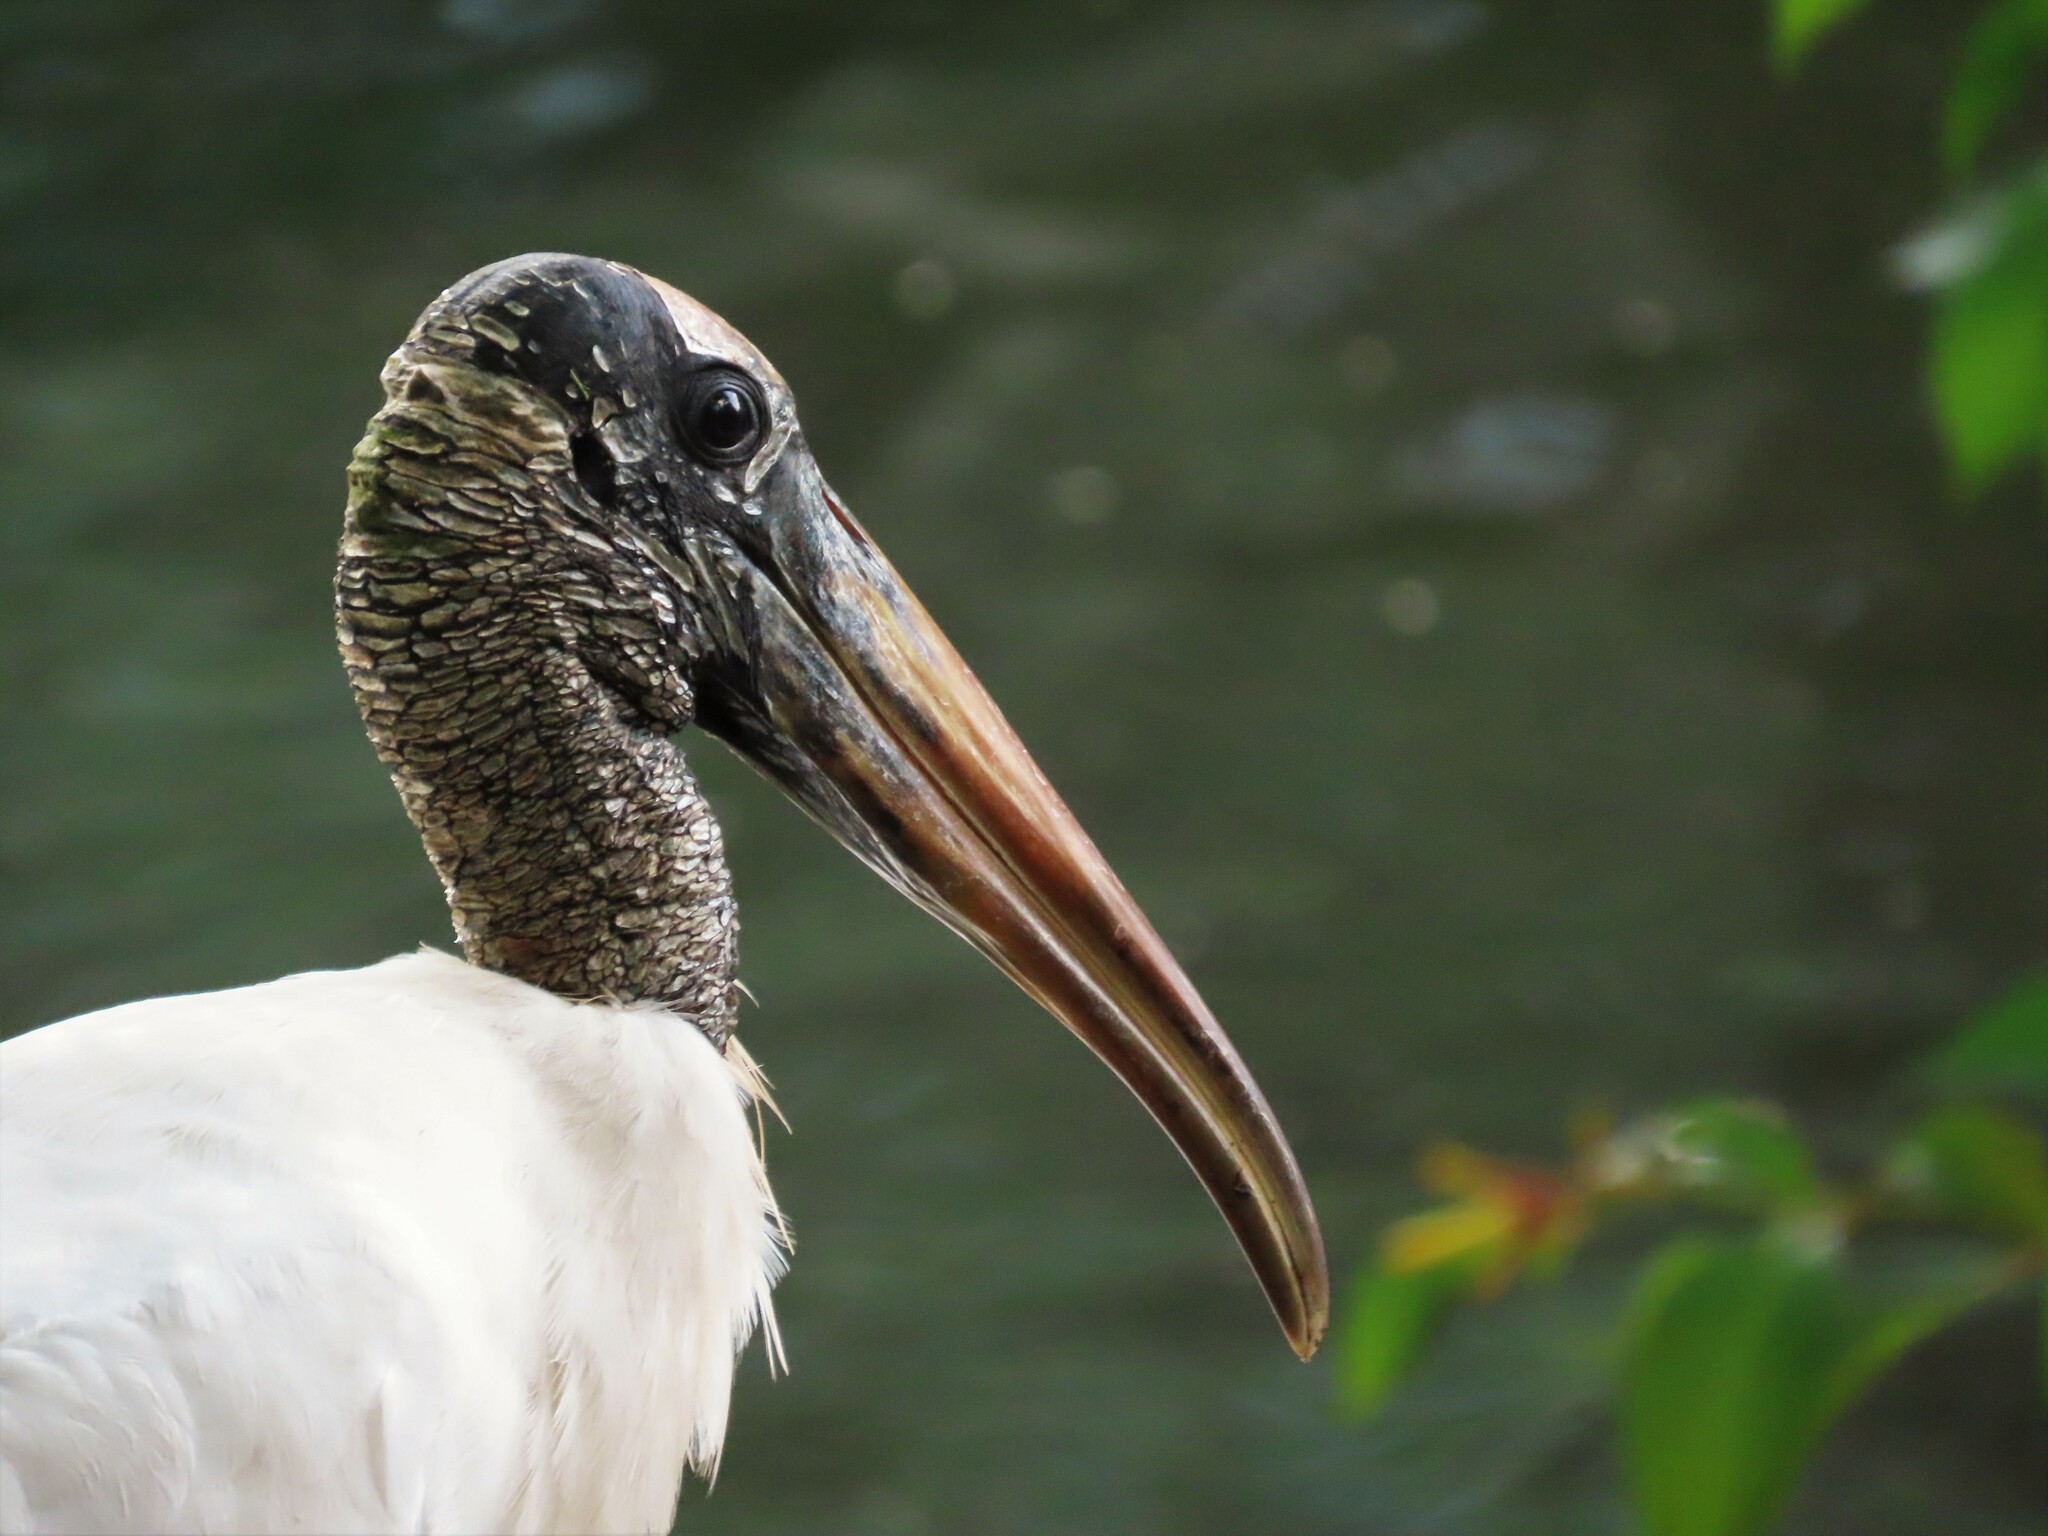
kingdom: Animalia
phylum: Chordata
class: Aves
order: Ciconiiformes
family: Ciconiidae
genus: Mycteria
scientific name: Mycteria americana
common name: Wood stork
